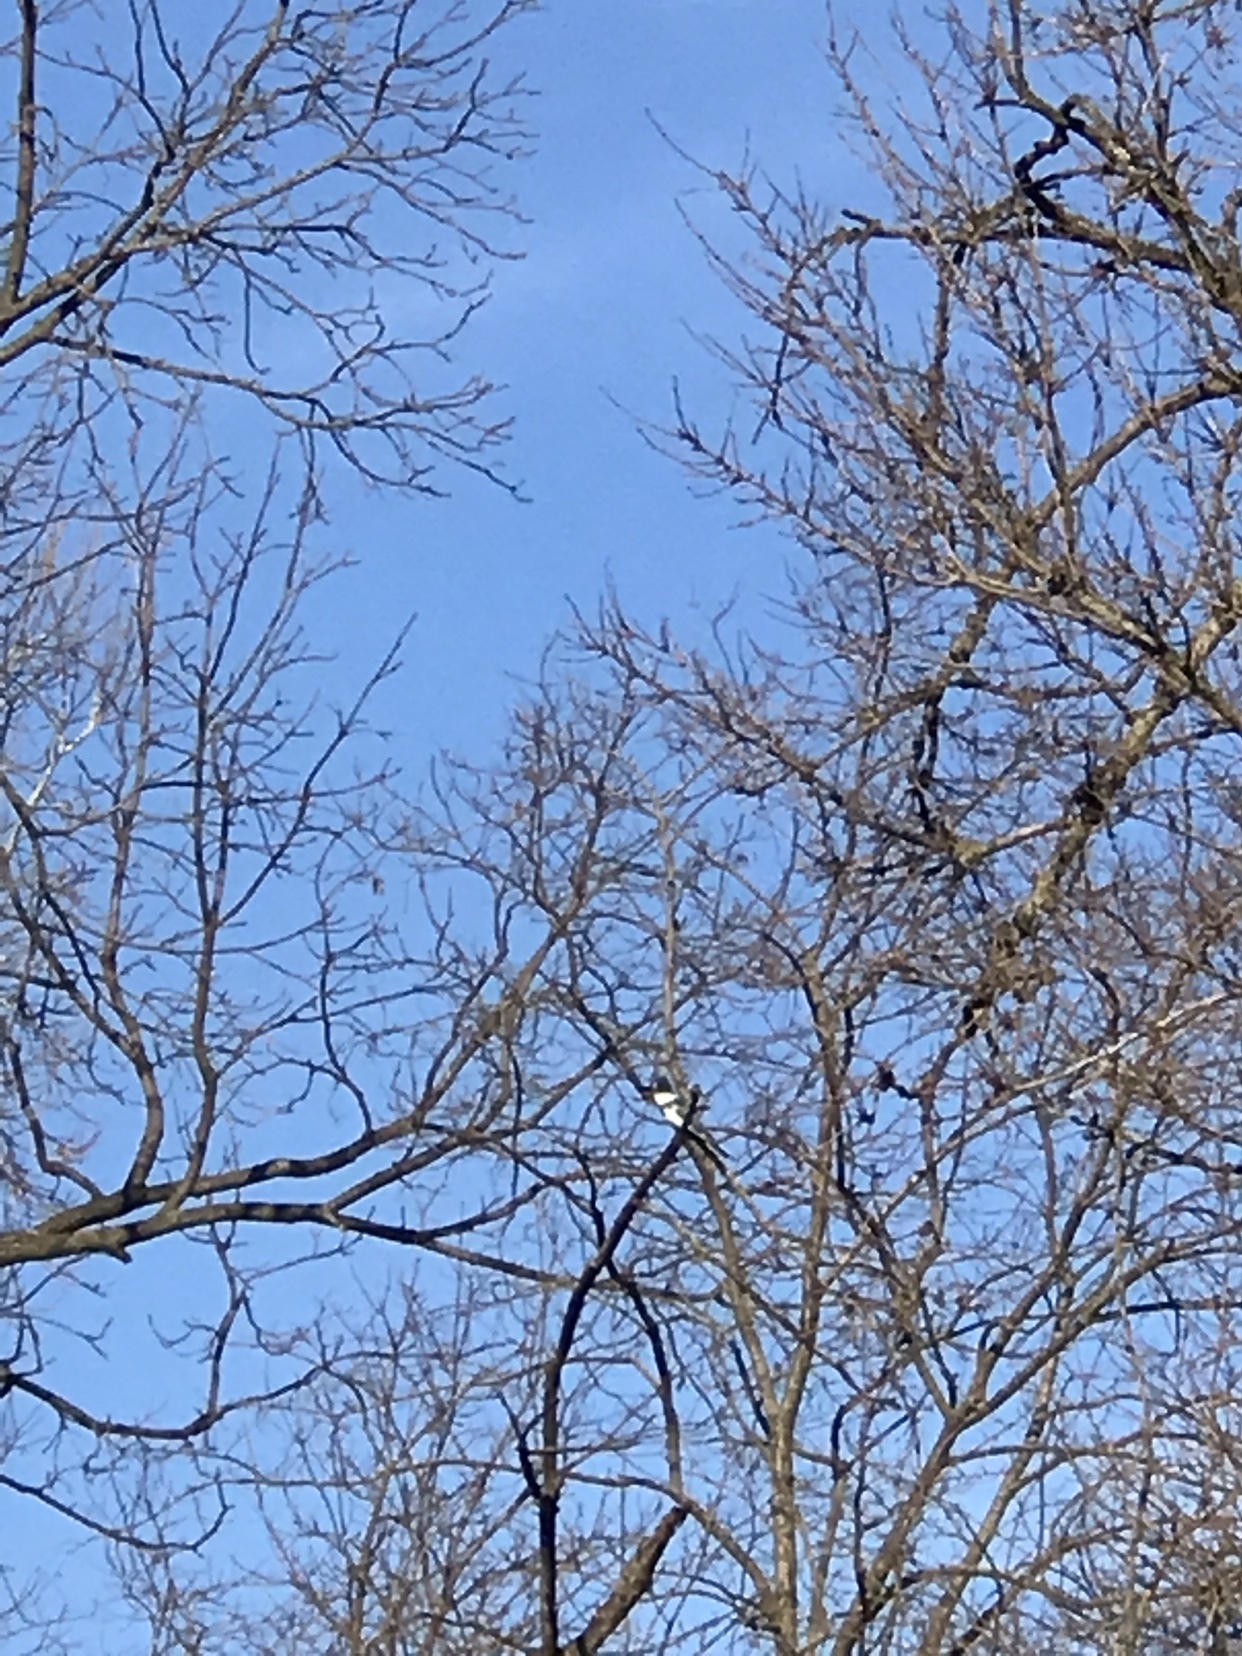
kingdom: Animalia
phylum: Chordata
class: Aves
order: Coraciiformes
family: Alcedinidae
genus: Megaceryle
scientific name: Megaceryle alcyon
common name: Belted kingfisher
